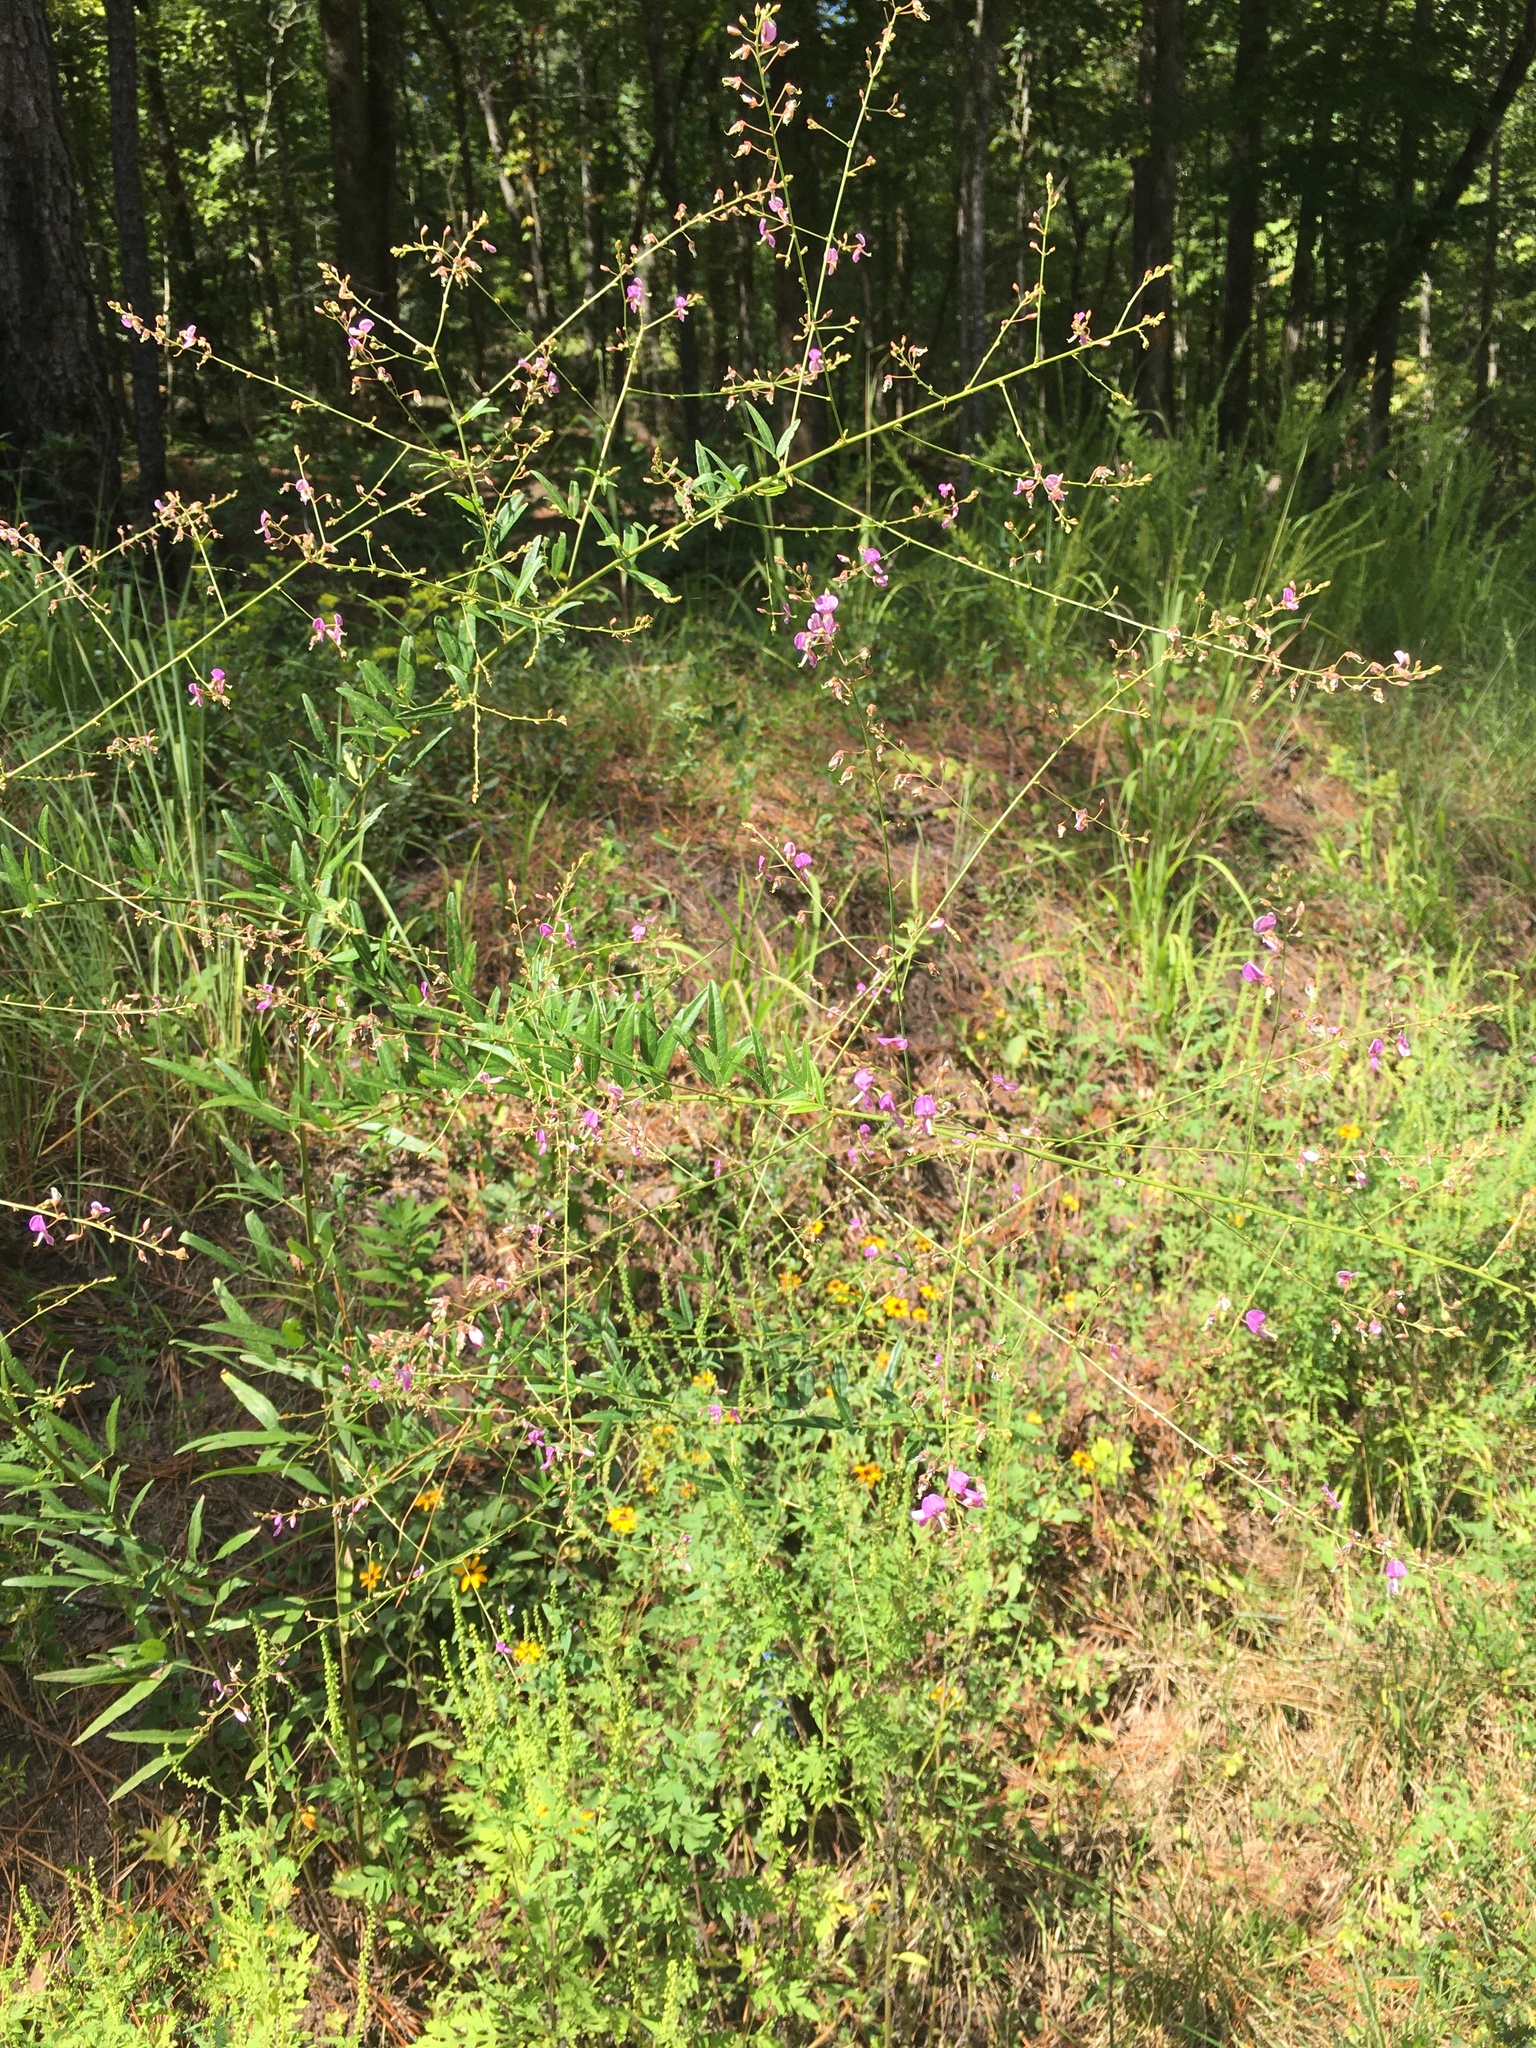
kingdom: Plantae
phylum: Tracheophyta
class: Magnoliopsida
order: Fabales
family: Fabaceae
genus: Desmodium
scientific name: Desmodium paniculatum
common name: Panicled tick-clover
